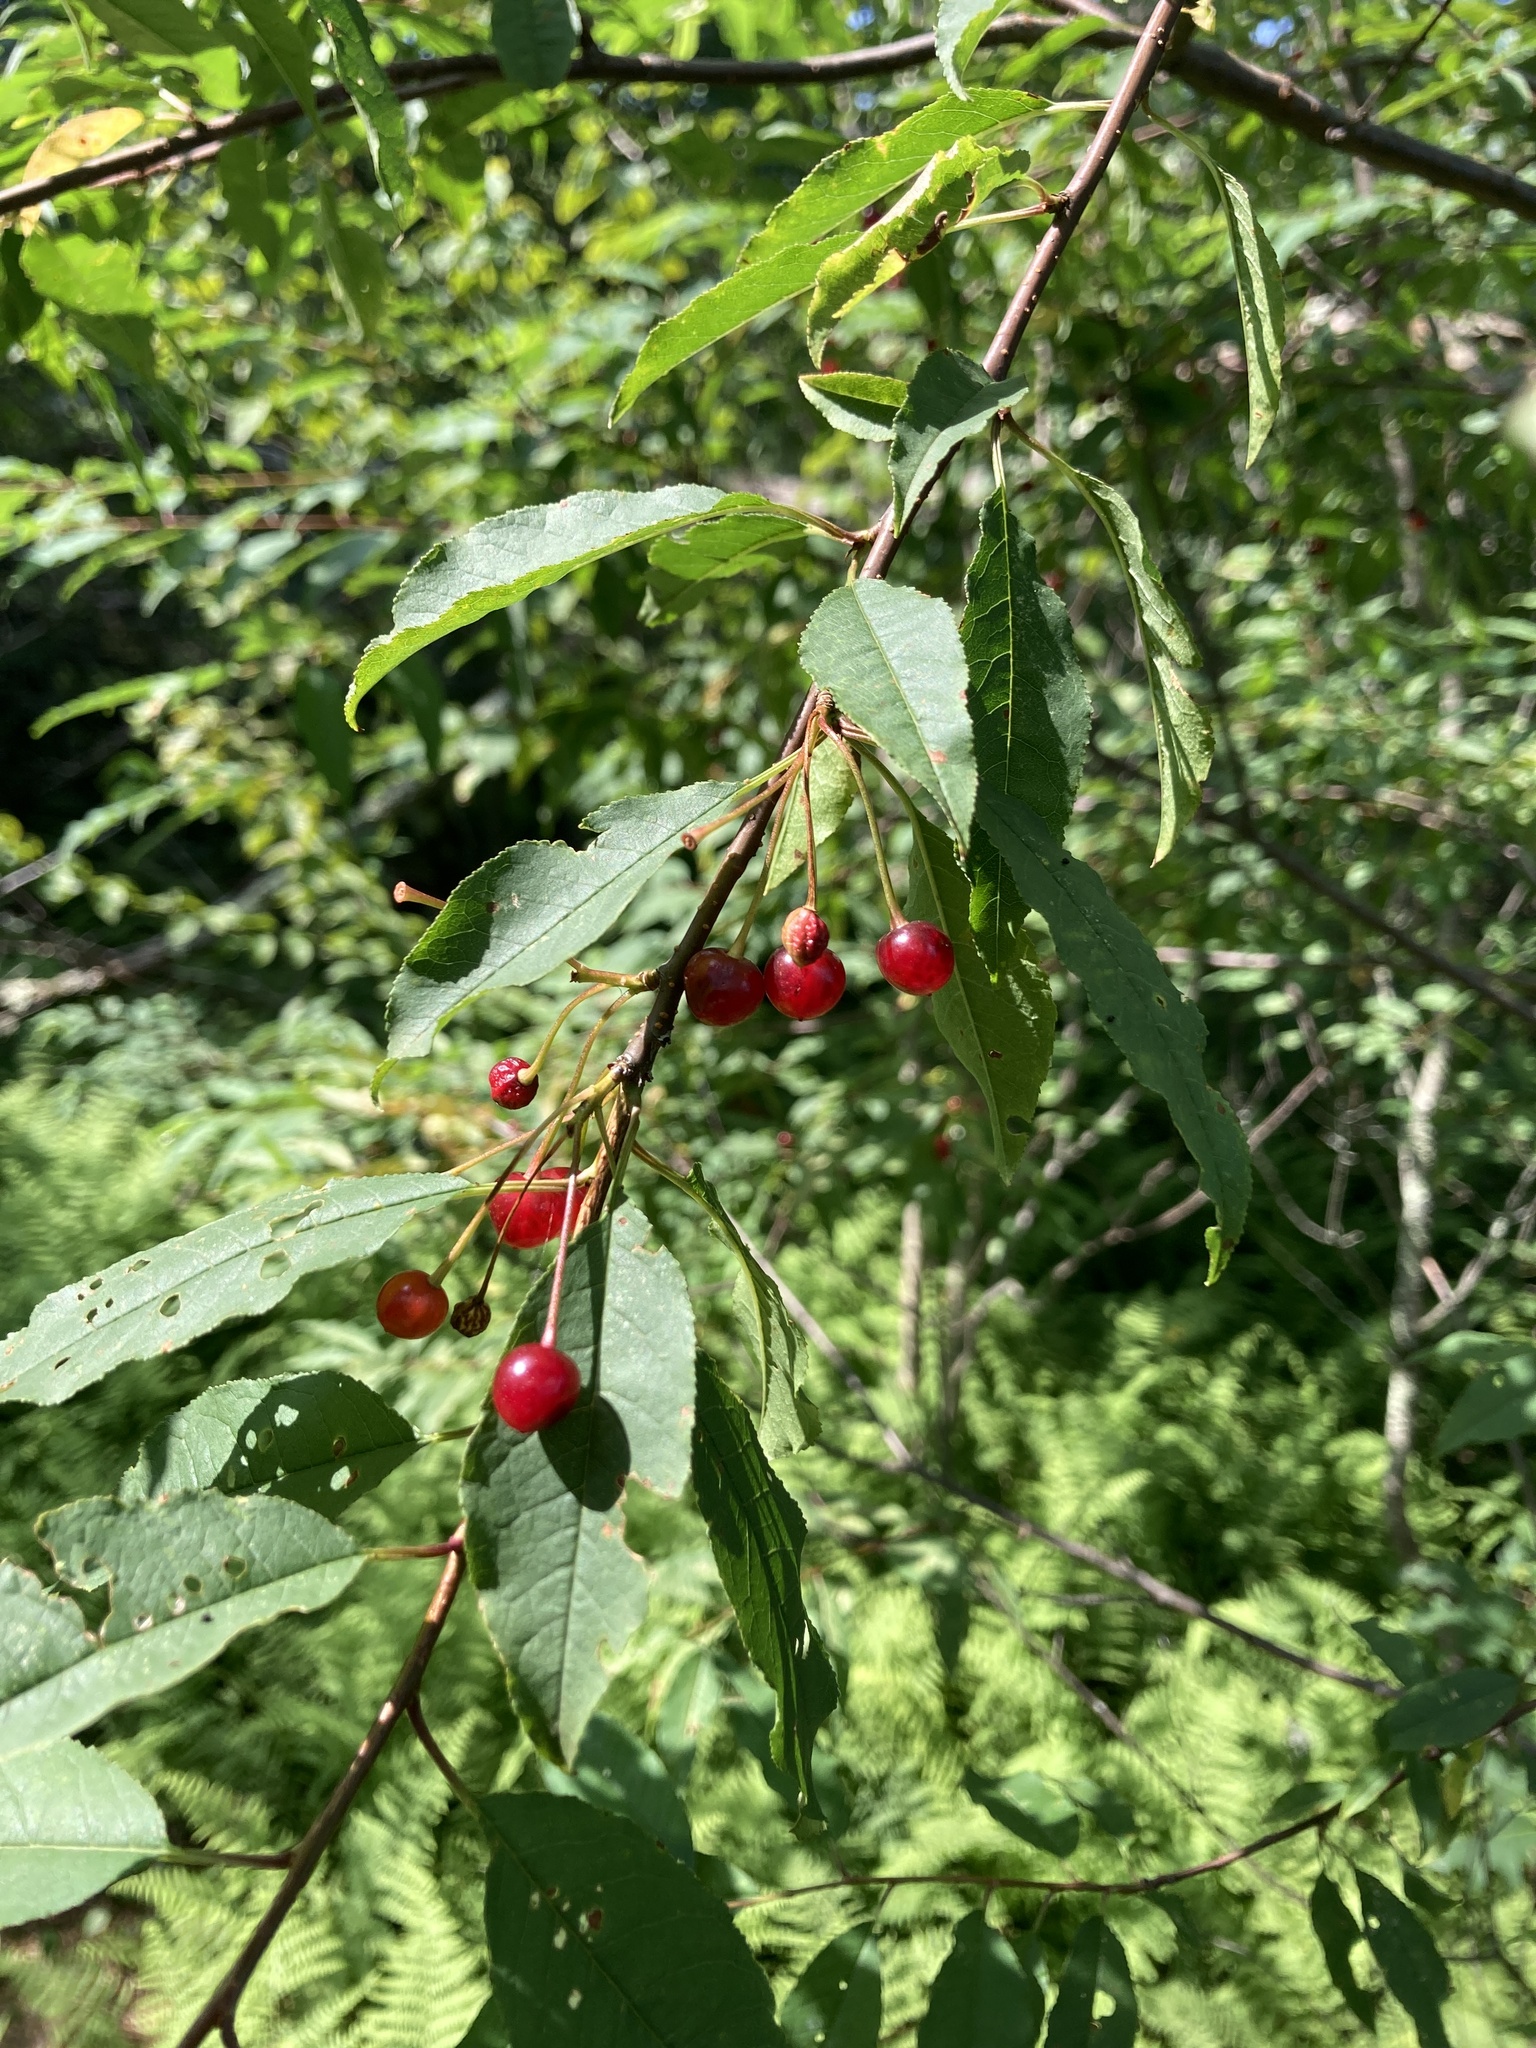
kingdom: Plantae
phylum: Tracheophyta
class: Magnoliopsida
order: Rosales
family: Rosaceae
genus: Prunus
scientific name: Prunus pensylvanica
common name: Pin cherry
